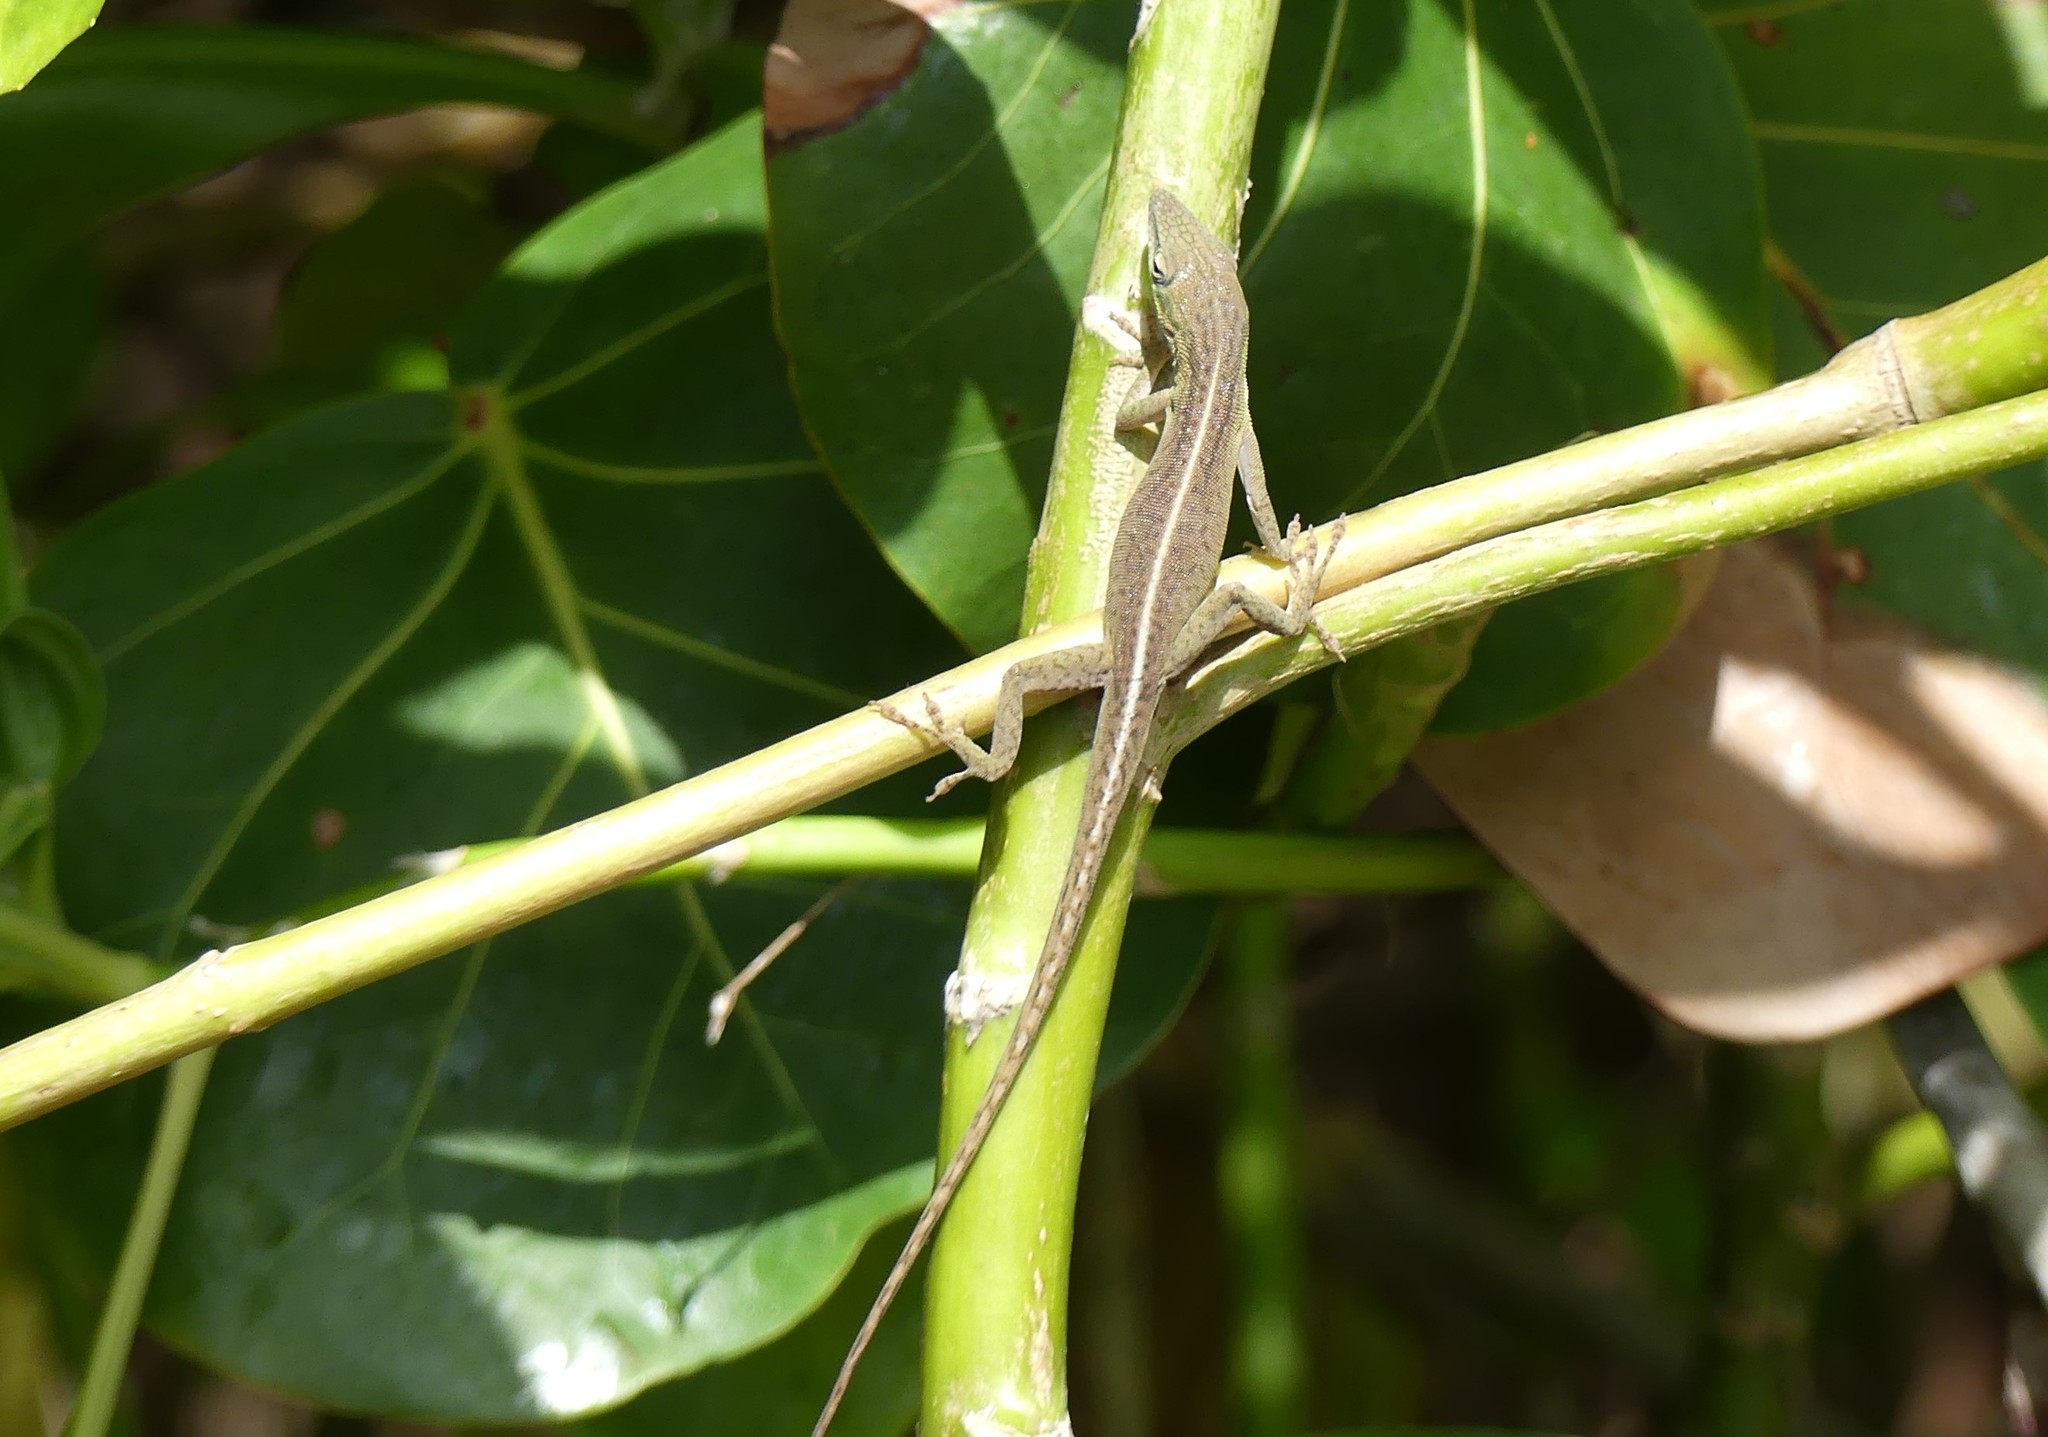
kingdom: Animalia
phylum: Chordata
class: Squamata
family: Dactyloidae
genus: Anolis
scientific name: Anolis porcatus
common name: Cuban green anole
